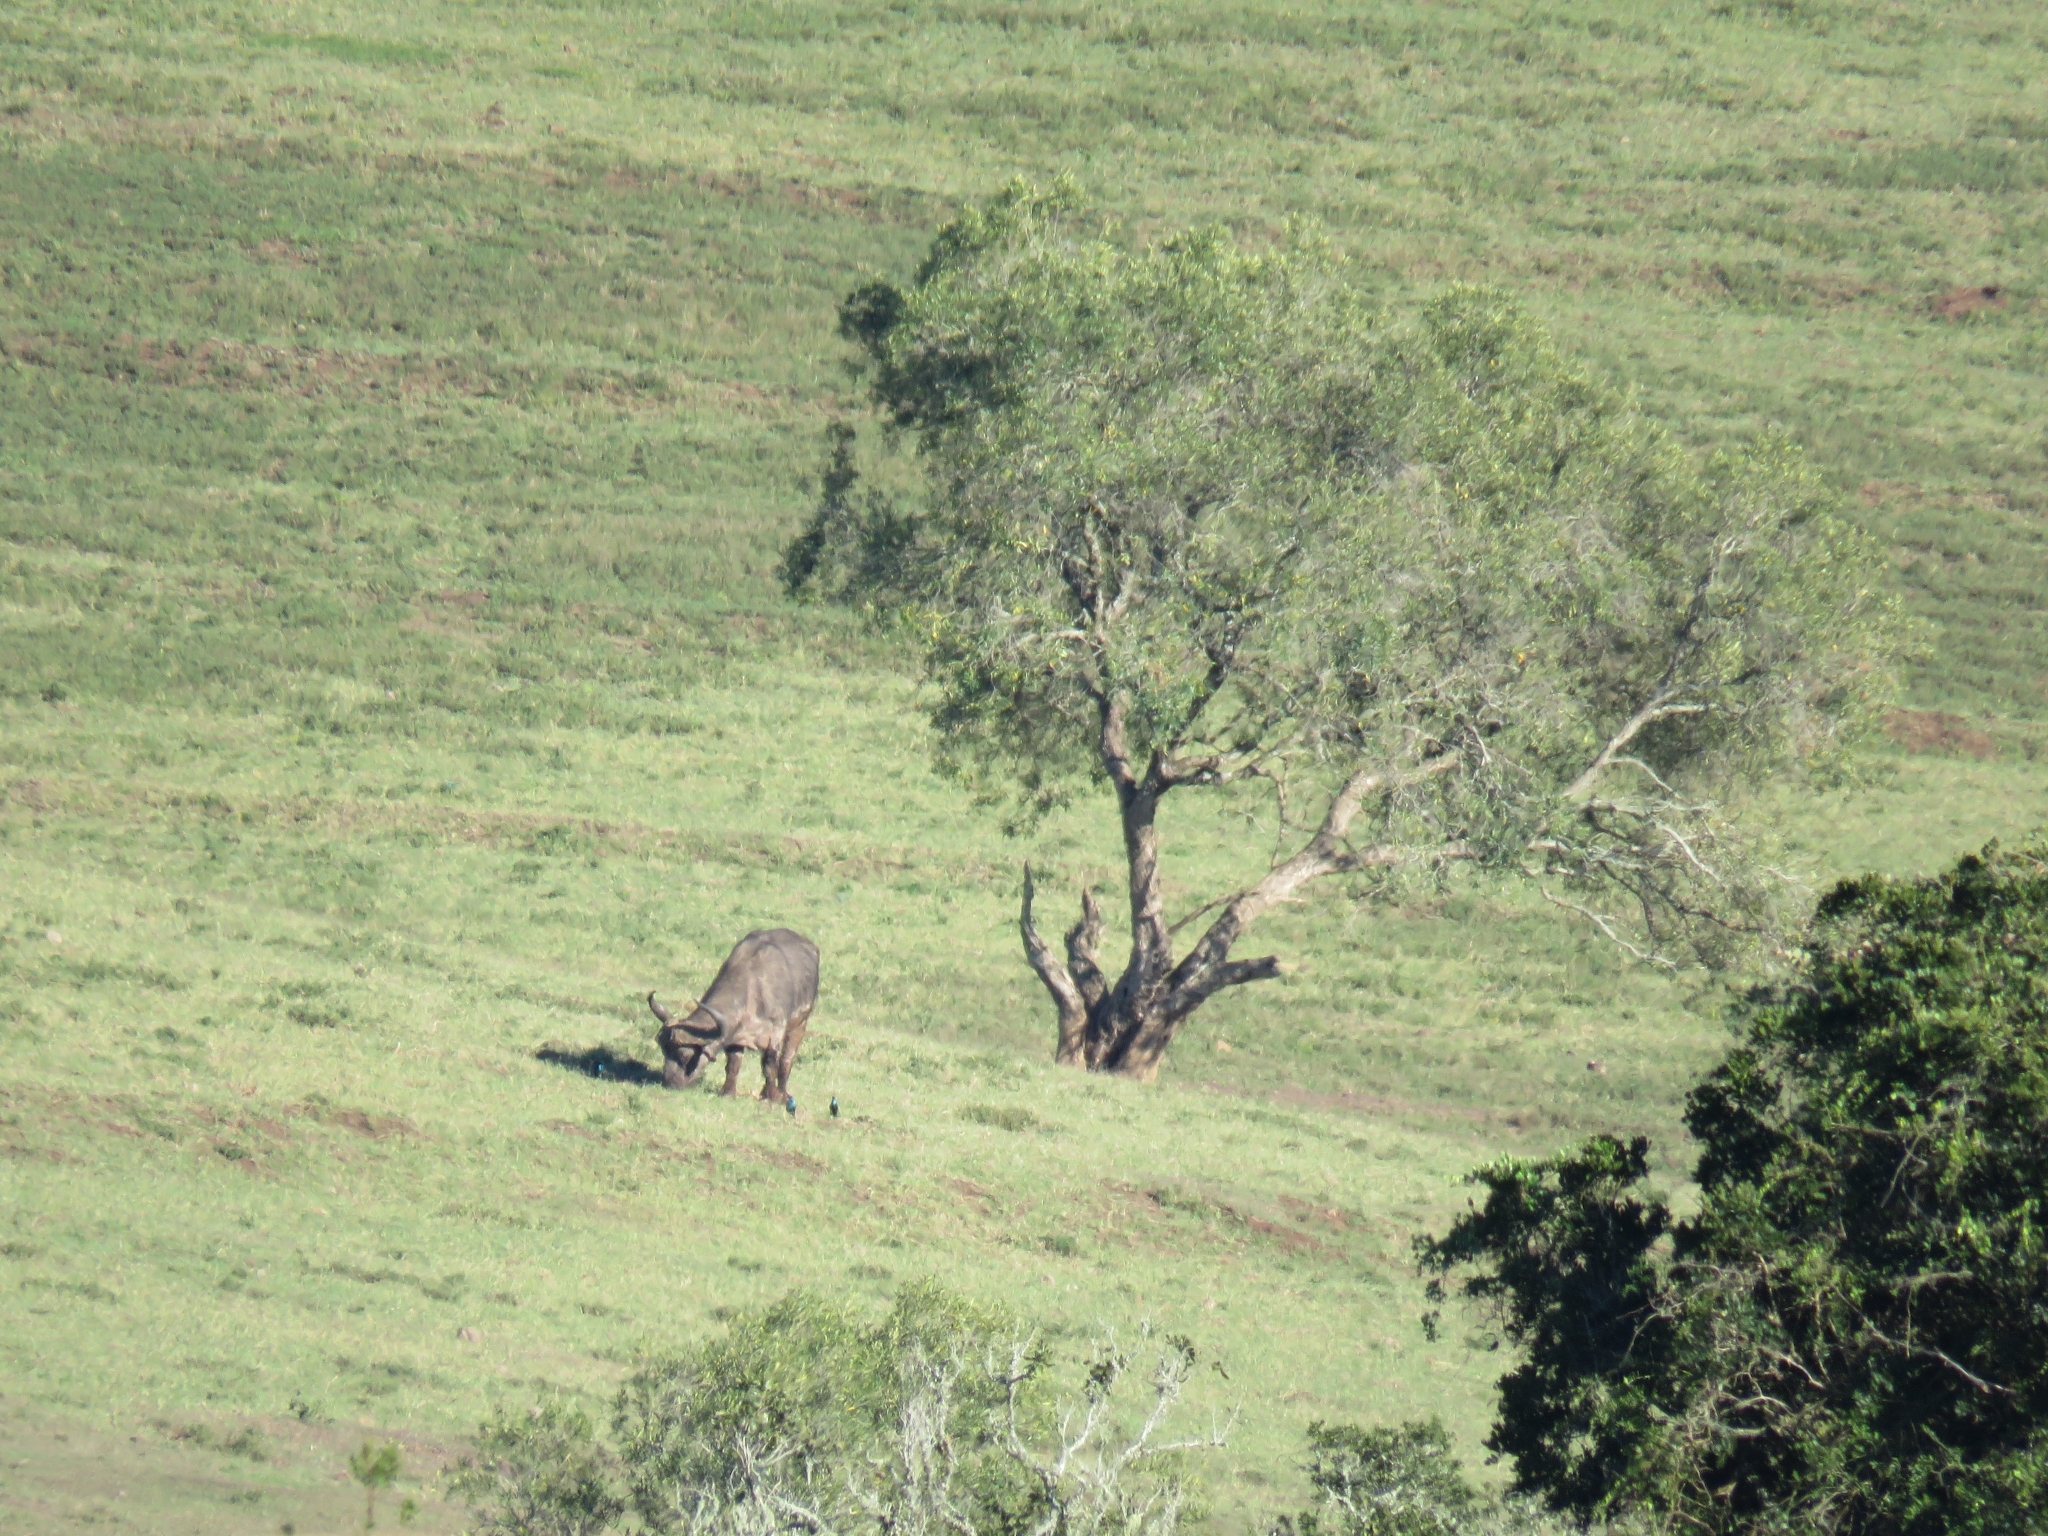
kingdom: Animalia
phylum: Chordata
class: Mammalia
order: Artiodactyla
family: Bovidae
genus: Syncerus
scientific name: Syncerus caffer
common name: African buffalo
